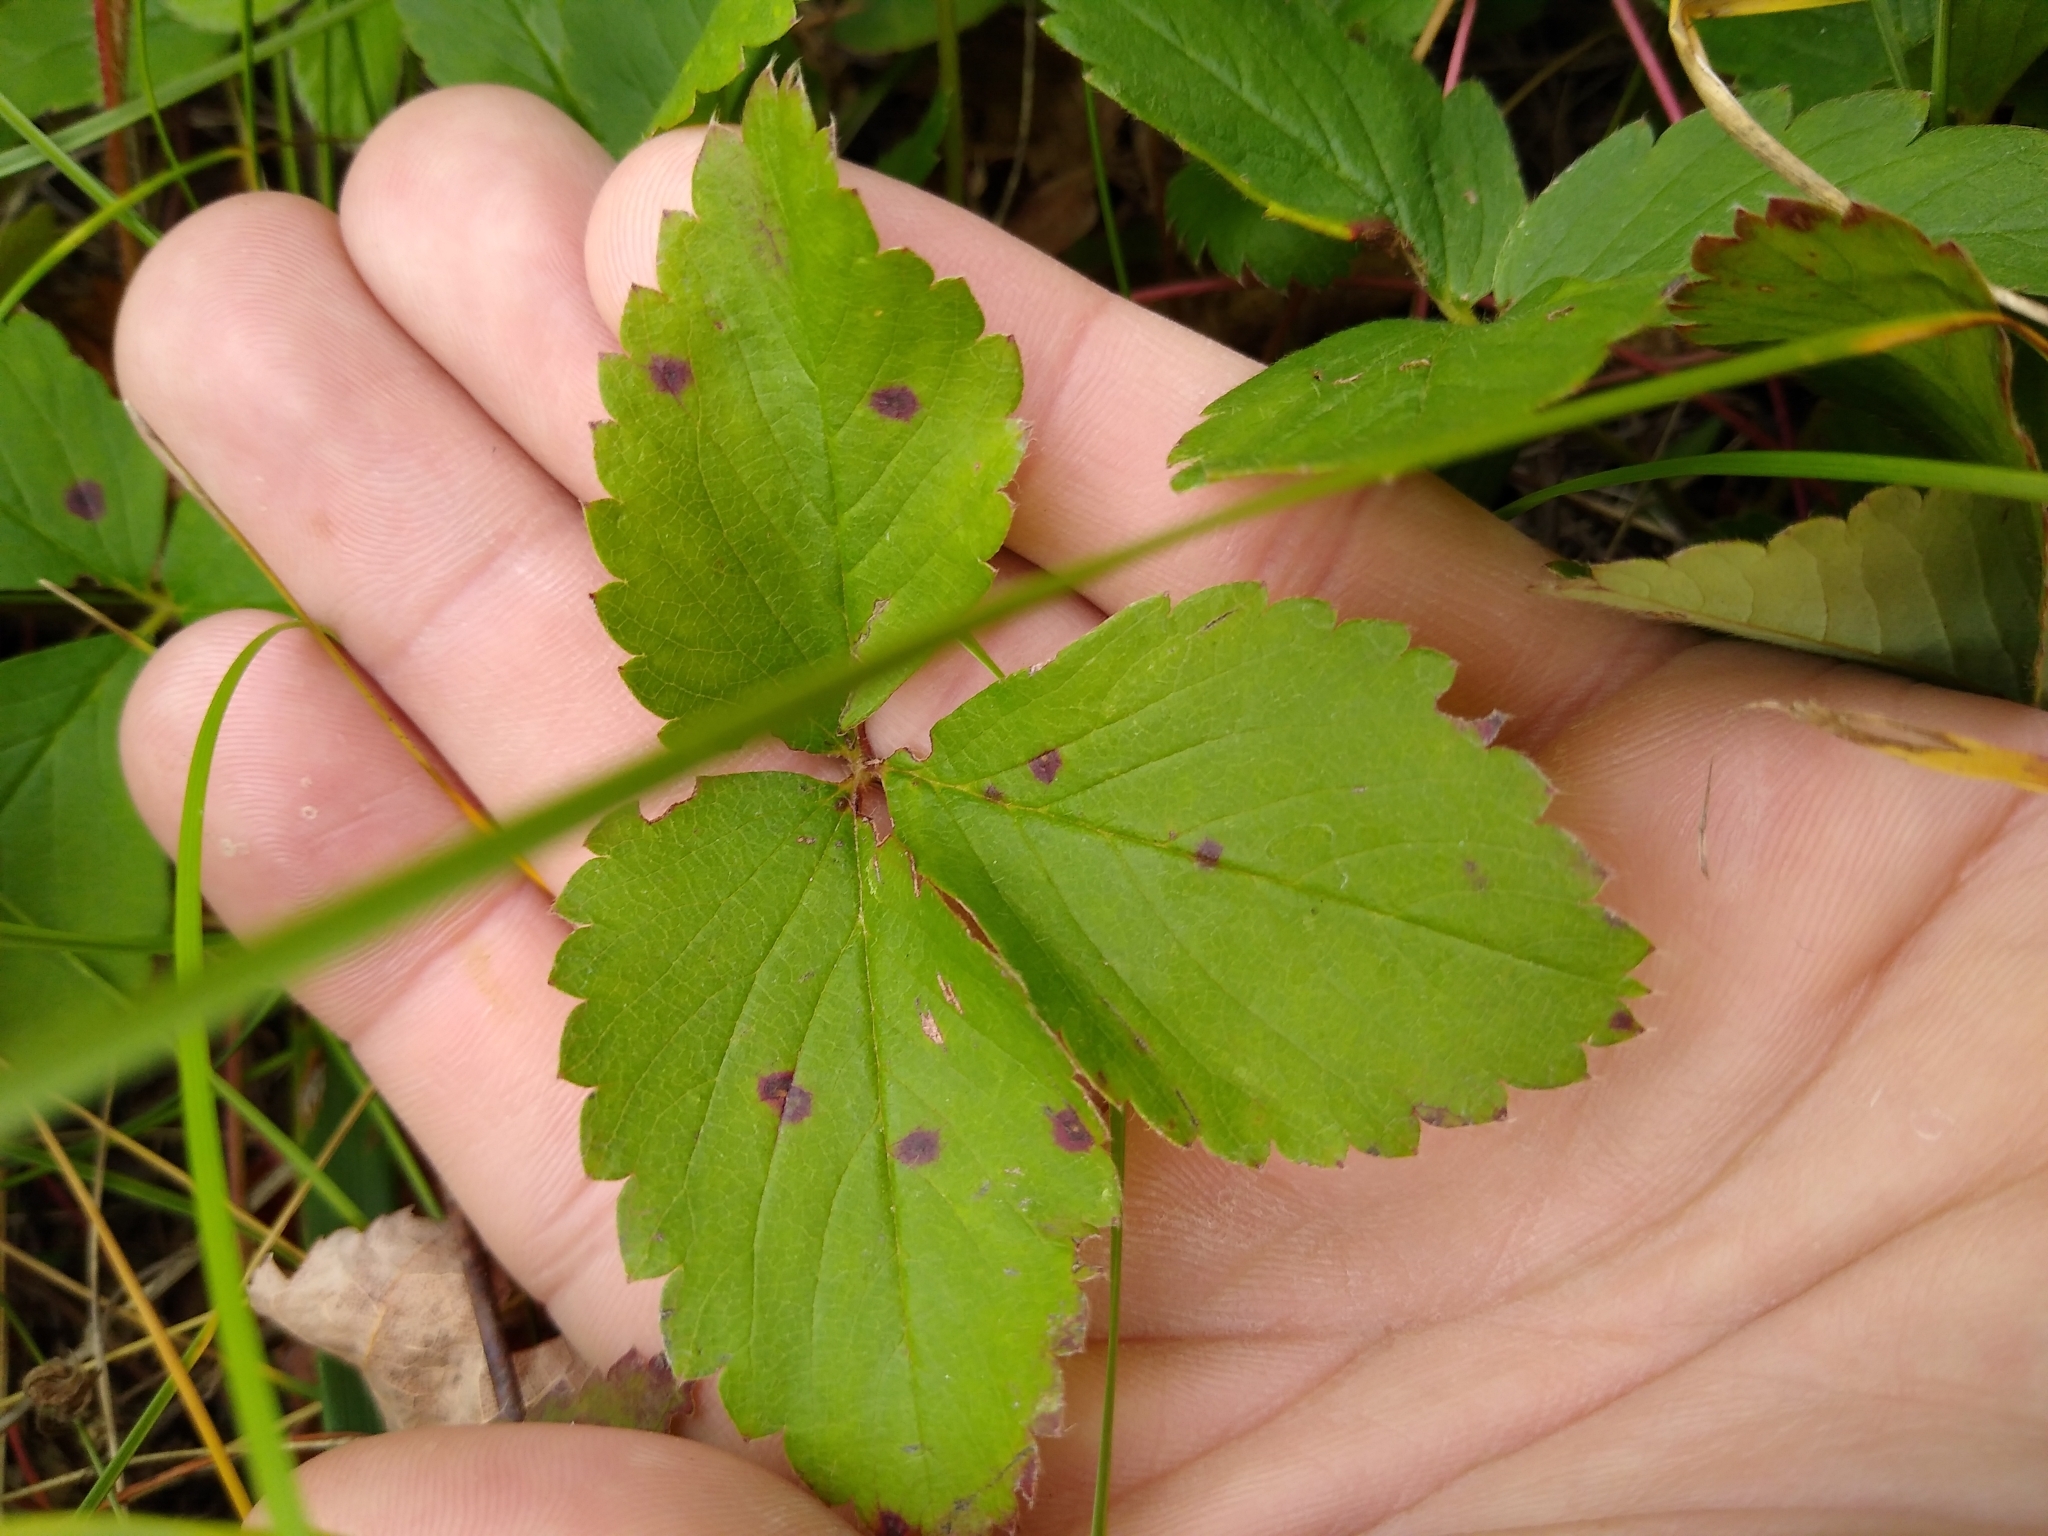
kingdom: Plantae
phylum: Tracheophyta
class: Magnoliopsida
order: Rosales
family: Rosaceae
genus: Fragaria
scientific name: Fragaria virginiana
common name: Thickleaved wild strawberry
